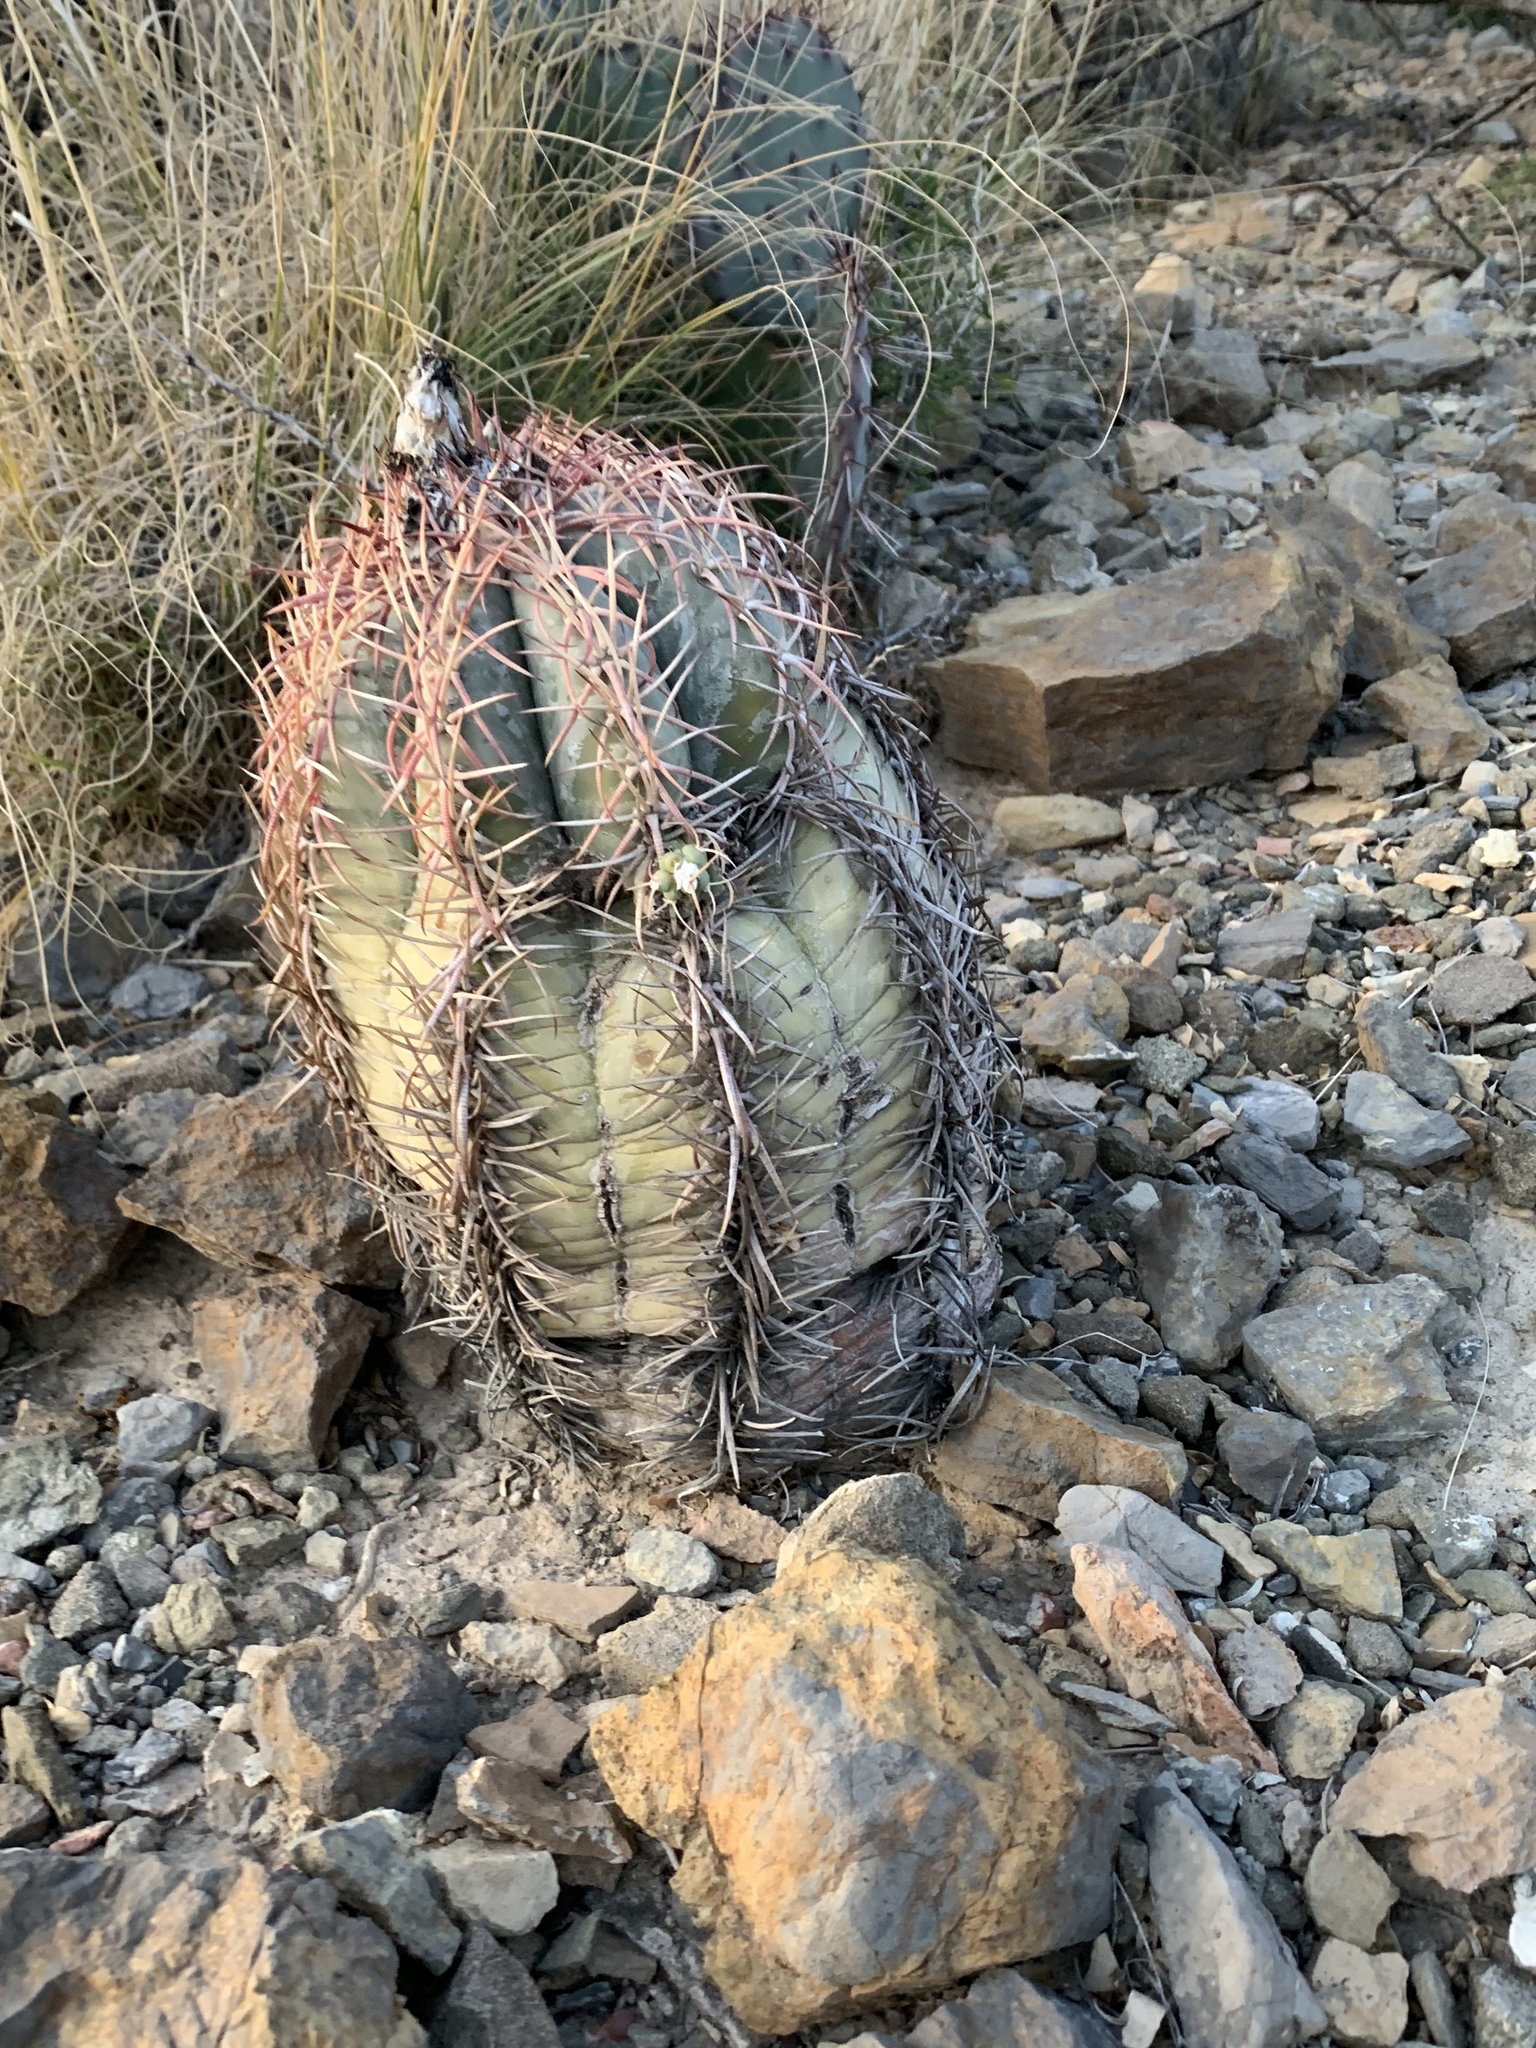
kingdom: Plantae
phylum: Tracheophyta
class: Magnoliopsida
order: Caryophyllales
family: Cactaceae
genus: Echinocactus
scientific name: Echinocactus horizonthalonius
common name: Devilshead
